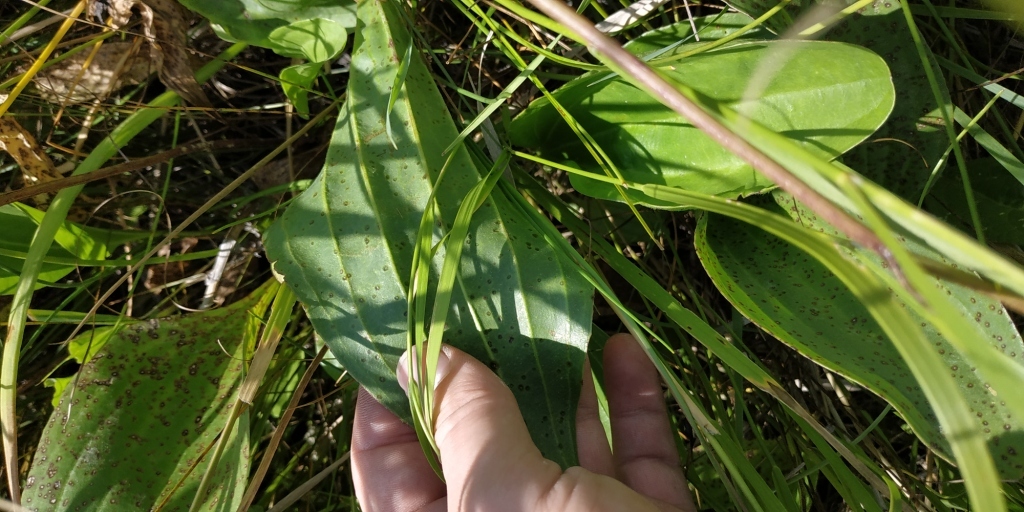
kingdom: Plantae
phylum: Tracheophyta
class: Magnoliopsida
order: Lamiales
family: Plantaginaceae
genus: Plantago
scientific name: Plantago cornuti
